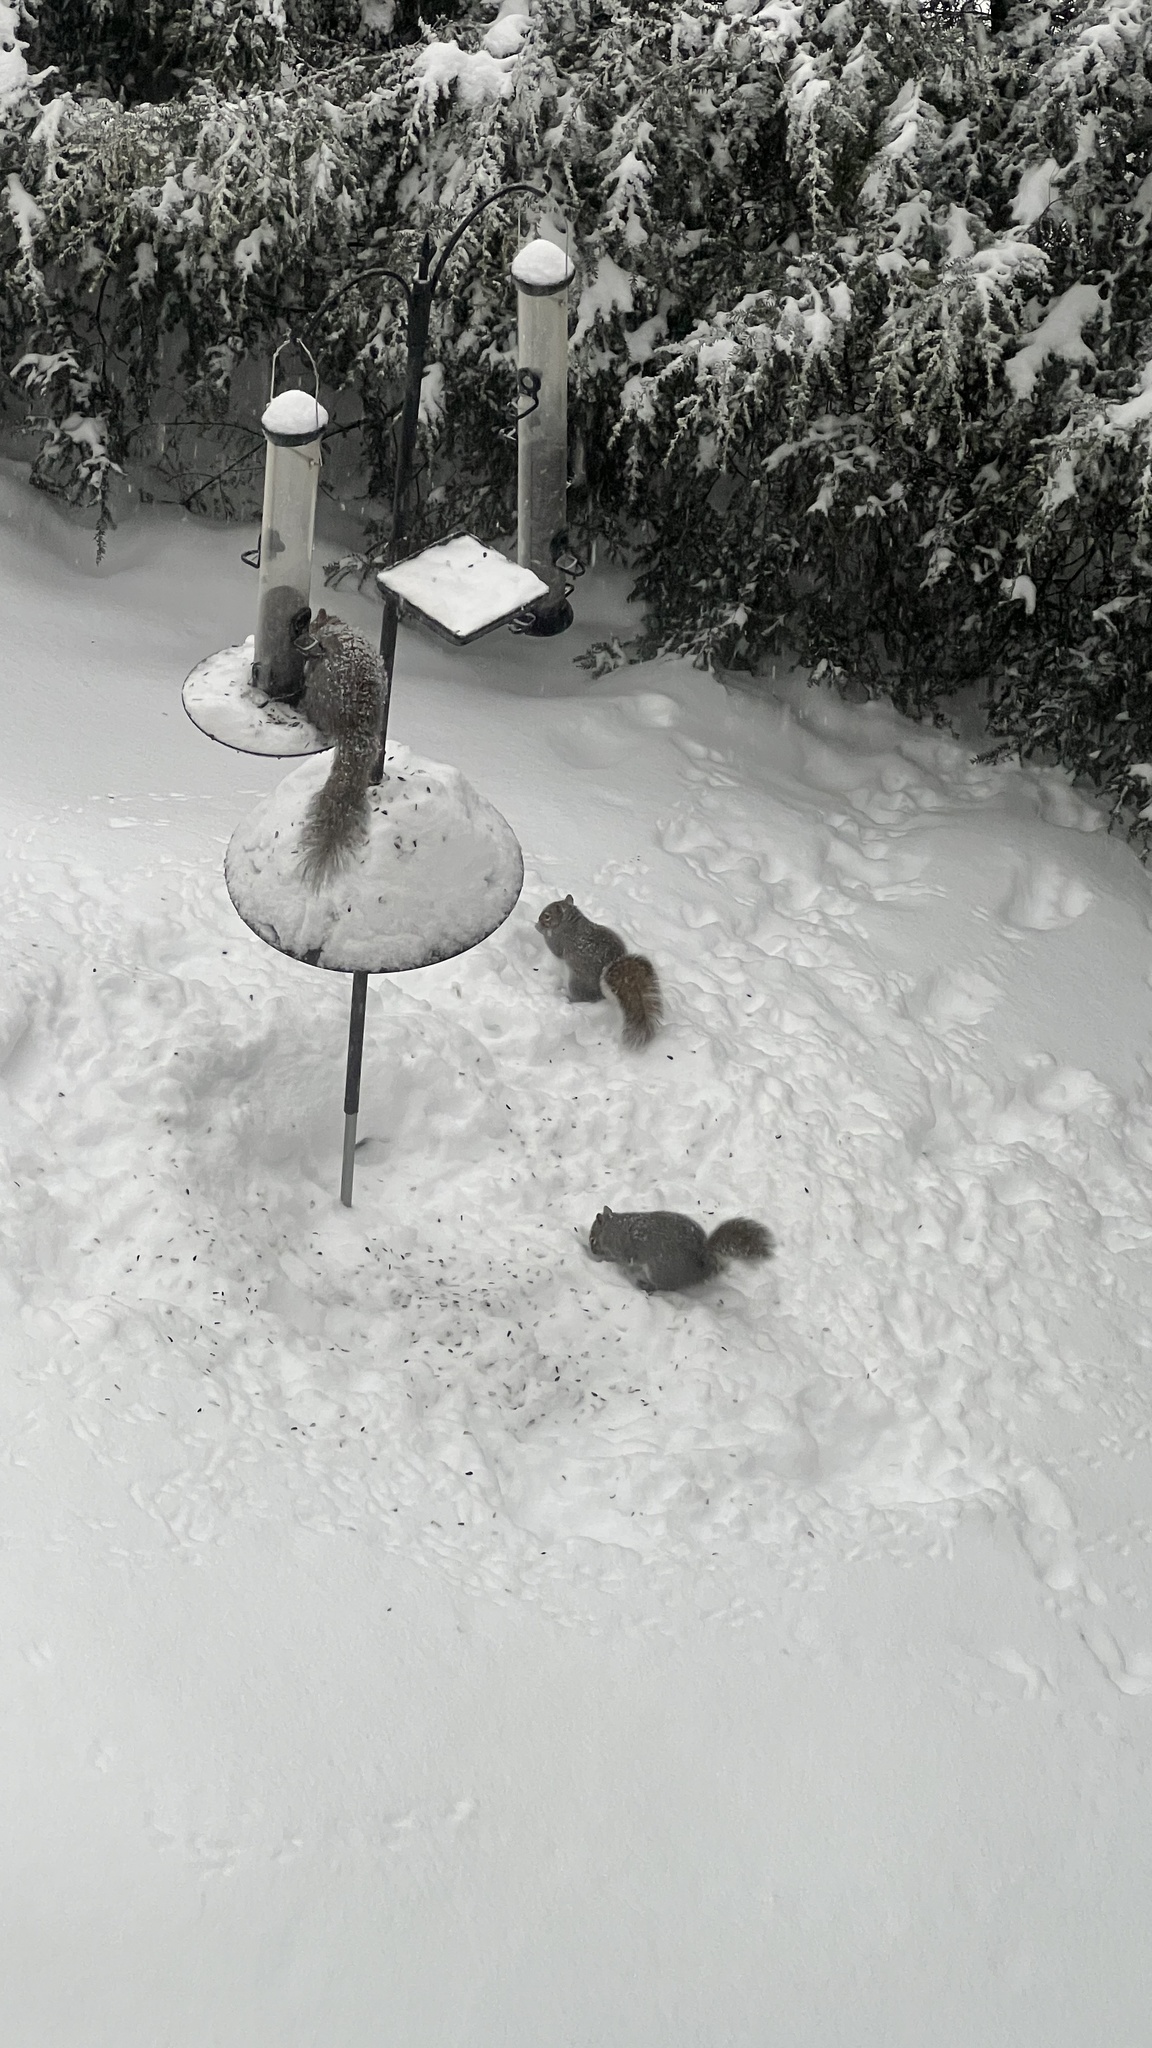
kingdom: Animalia
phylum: Chordata
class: Mammalia
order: Rodentia
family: Sciuridae
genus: Sciurus
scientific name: Sciurus carolinensis
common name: Eastern gray squirrel
